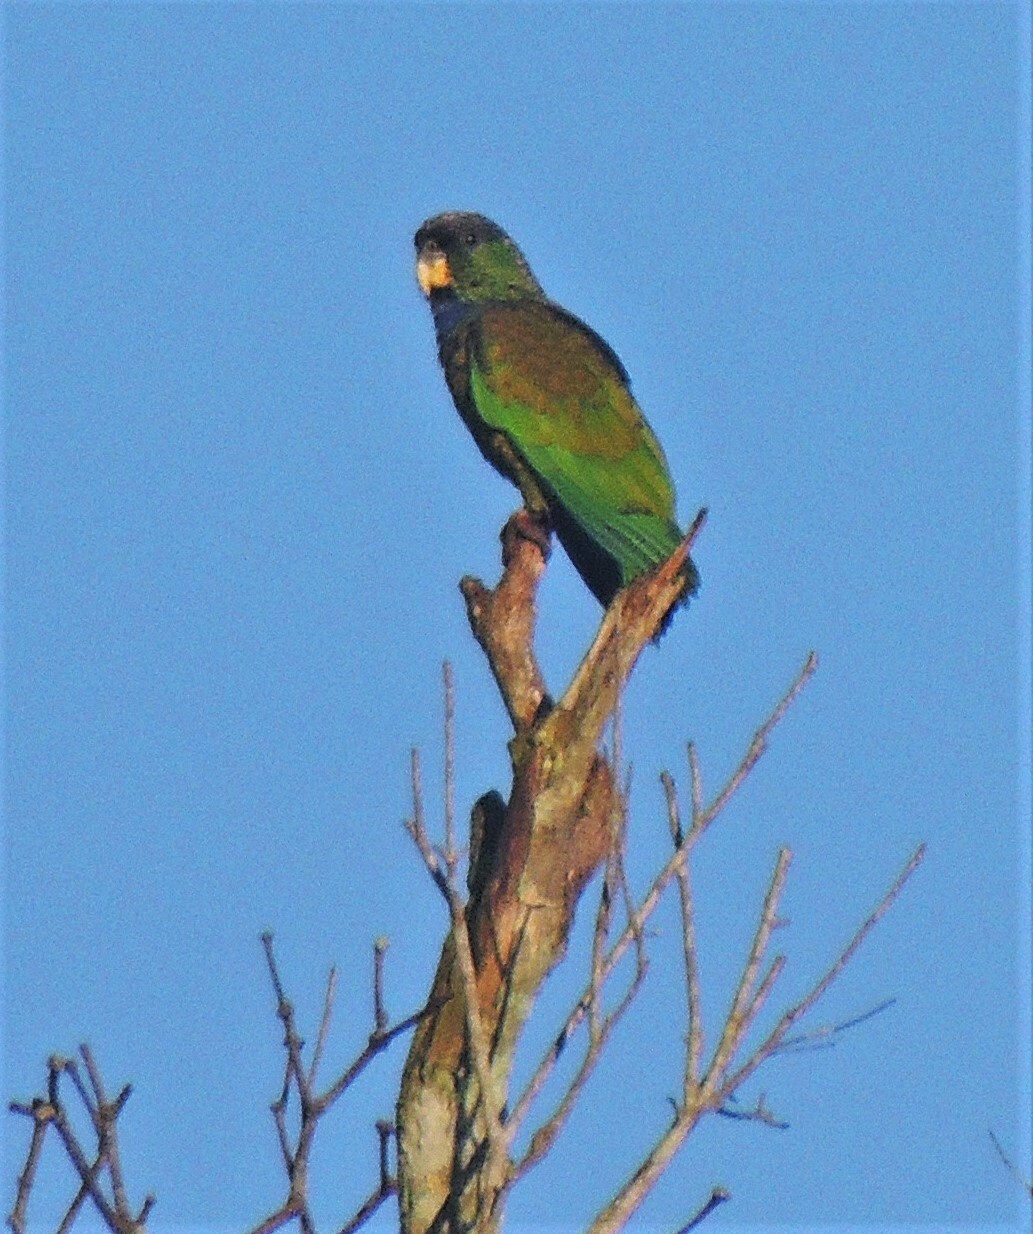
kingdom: Animalia
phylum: Chordata
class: Aves
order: Psittaciformes
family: Psittacidae
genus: Pionus
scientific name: Pionus maximiliani
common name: Scaly-headed parrot
